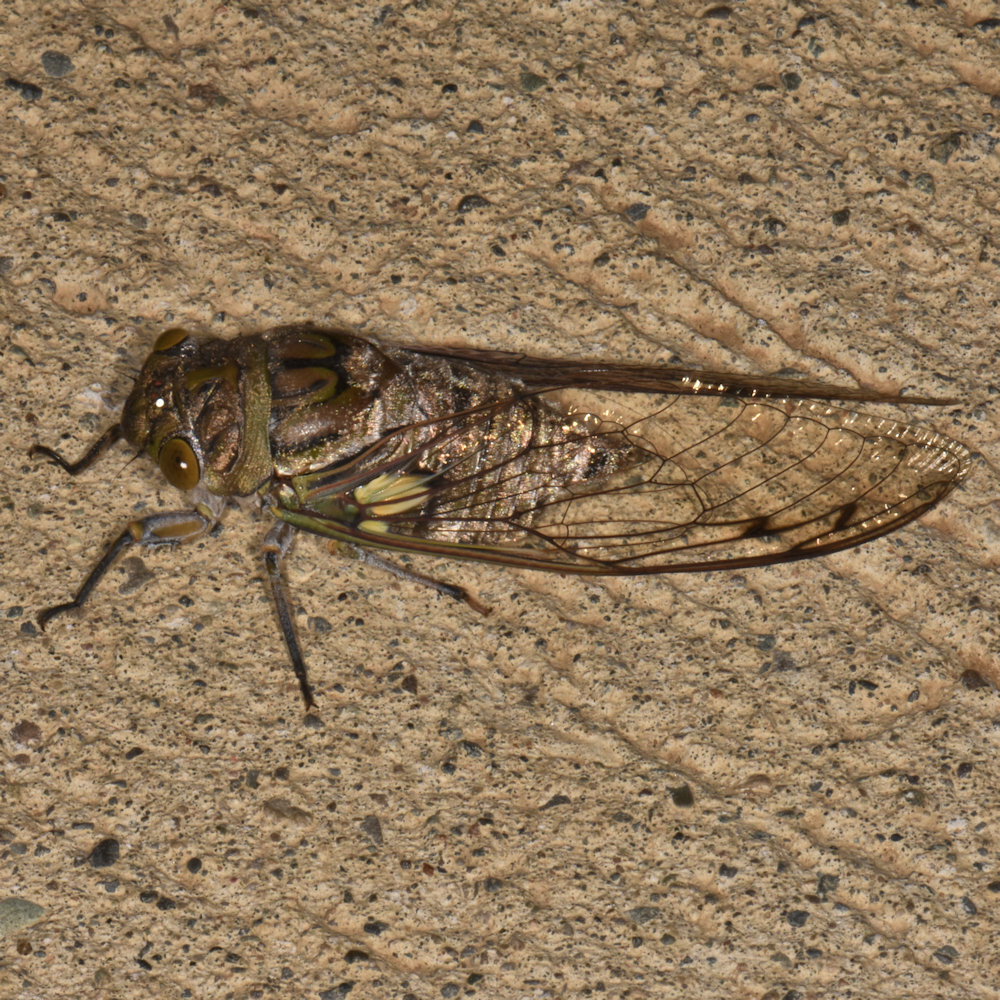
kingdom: Animalia
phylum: Arthropoda
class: Insecta
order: Hemiptera
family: Cicadidae
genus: Quesada
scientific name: Quesada gigas
